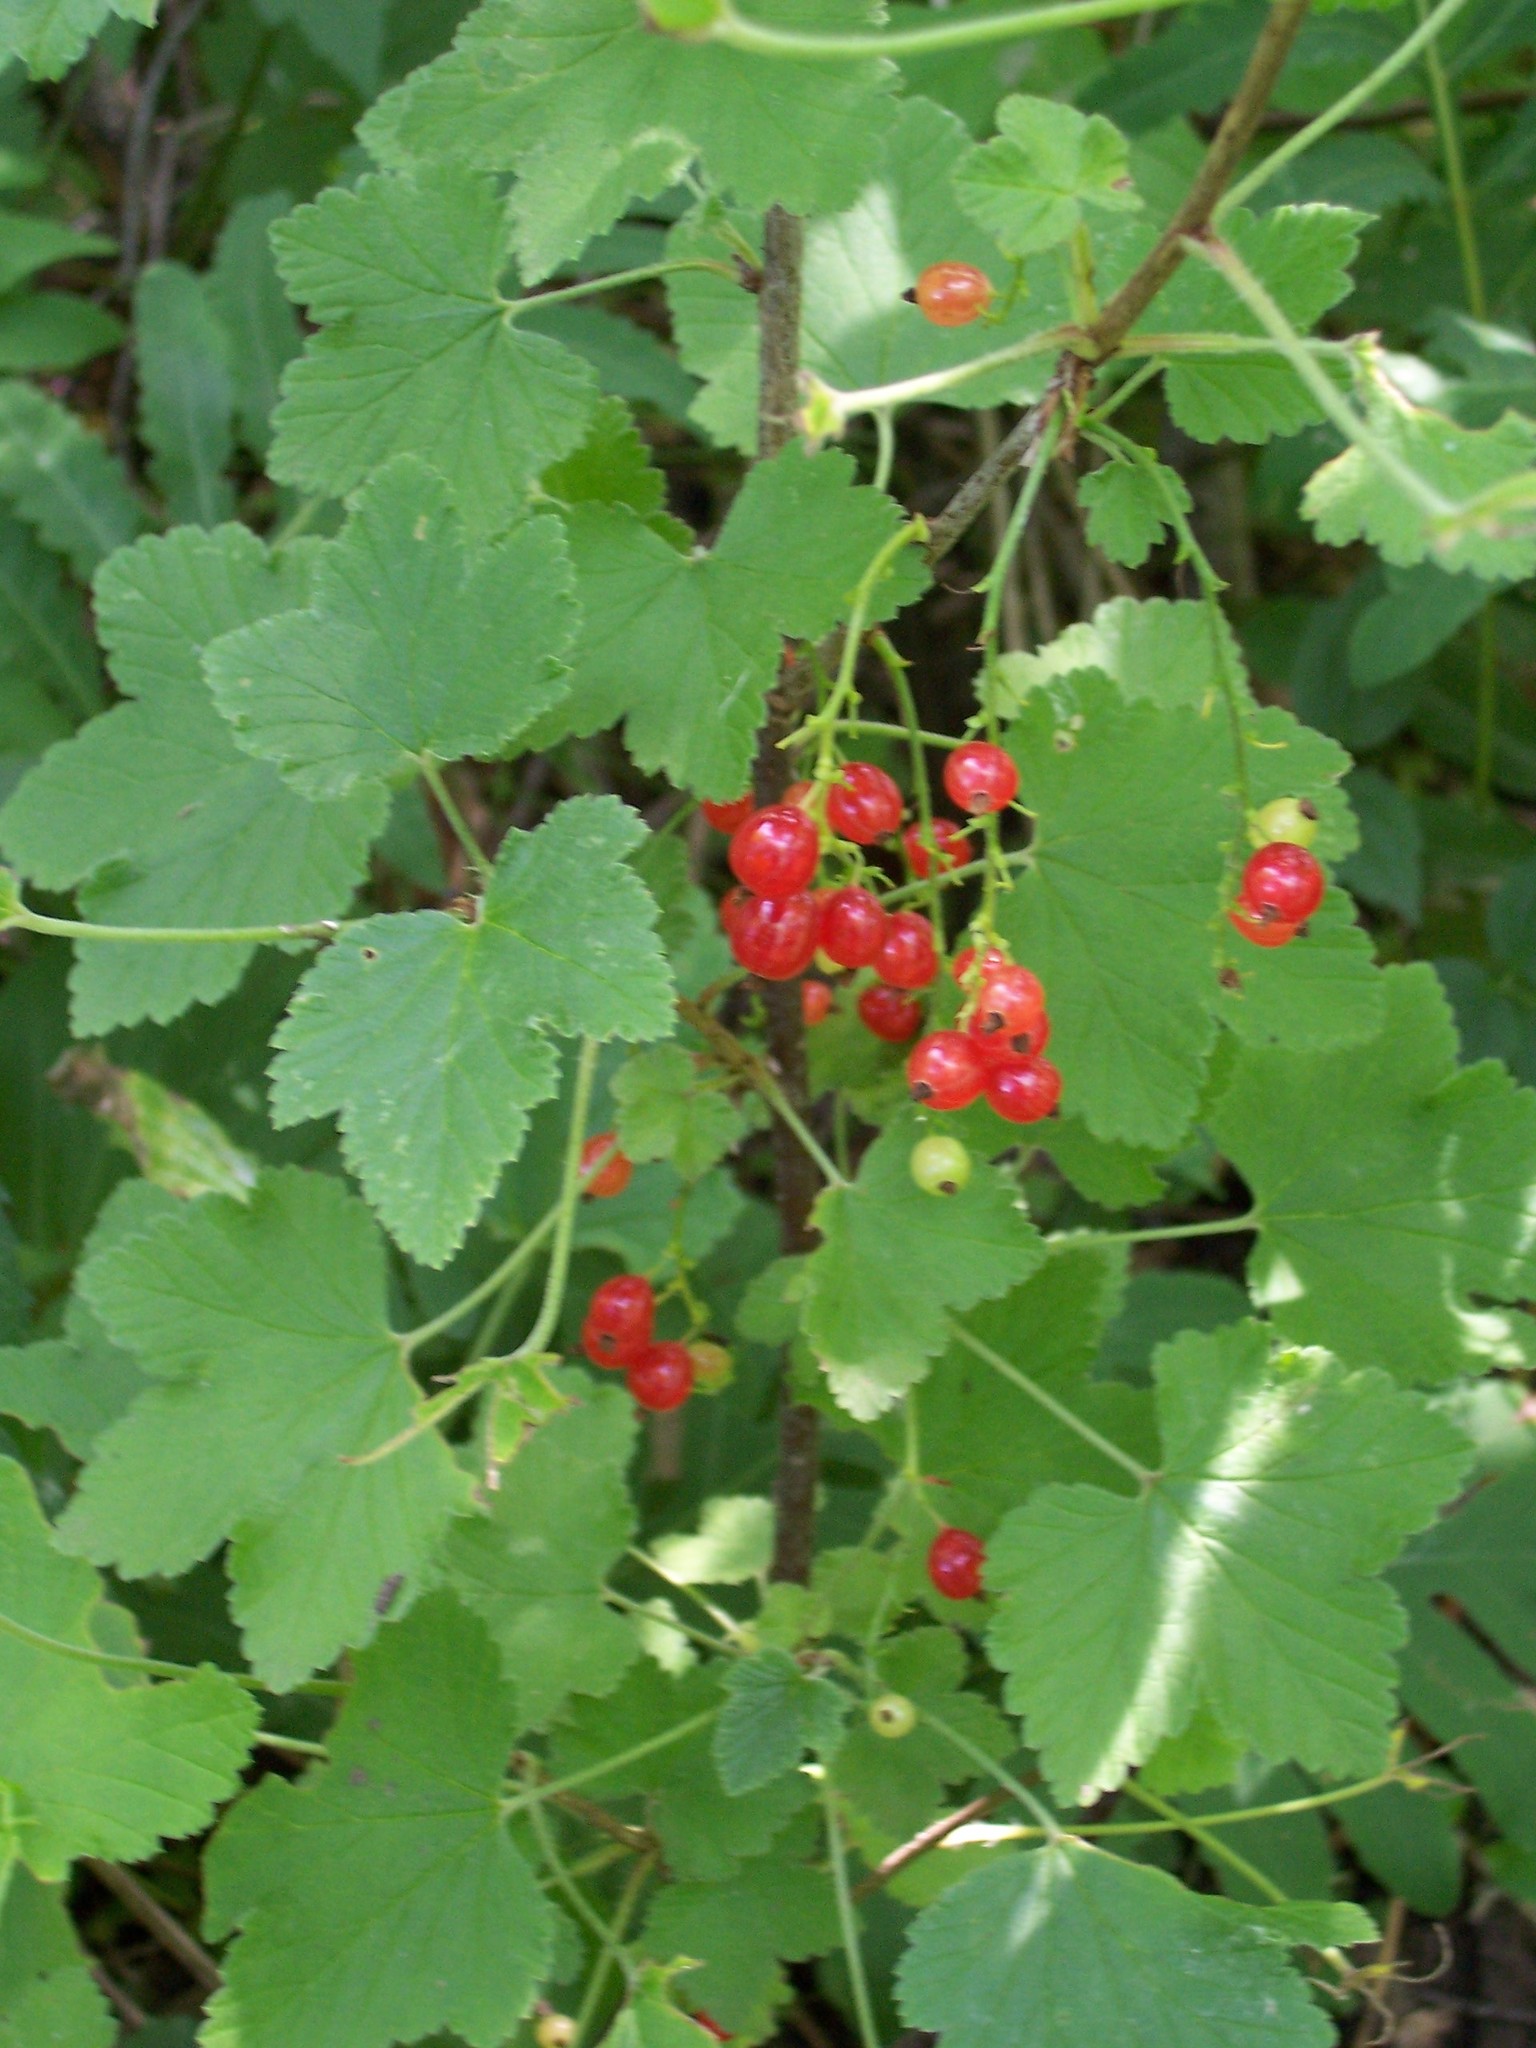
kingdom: Plantae
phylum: Tracheophyta
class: Magnoliopsida
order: Saxifragales
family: Grossulariaceae
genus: Ribes
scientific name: Ribes rubrum
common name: Red currant
